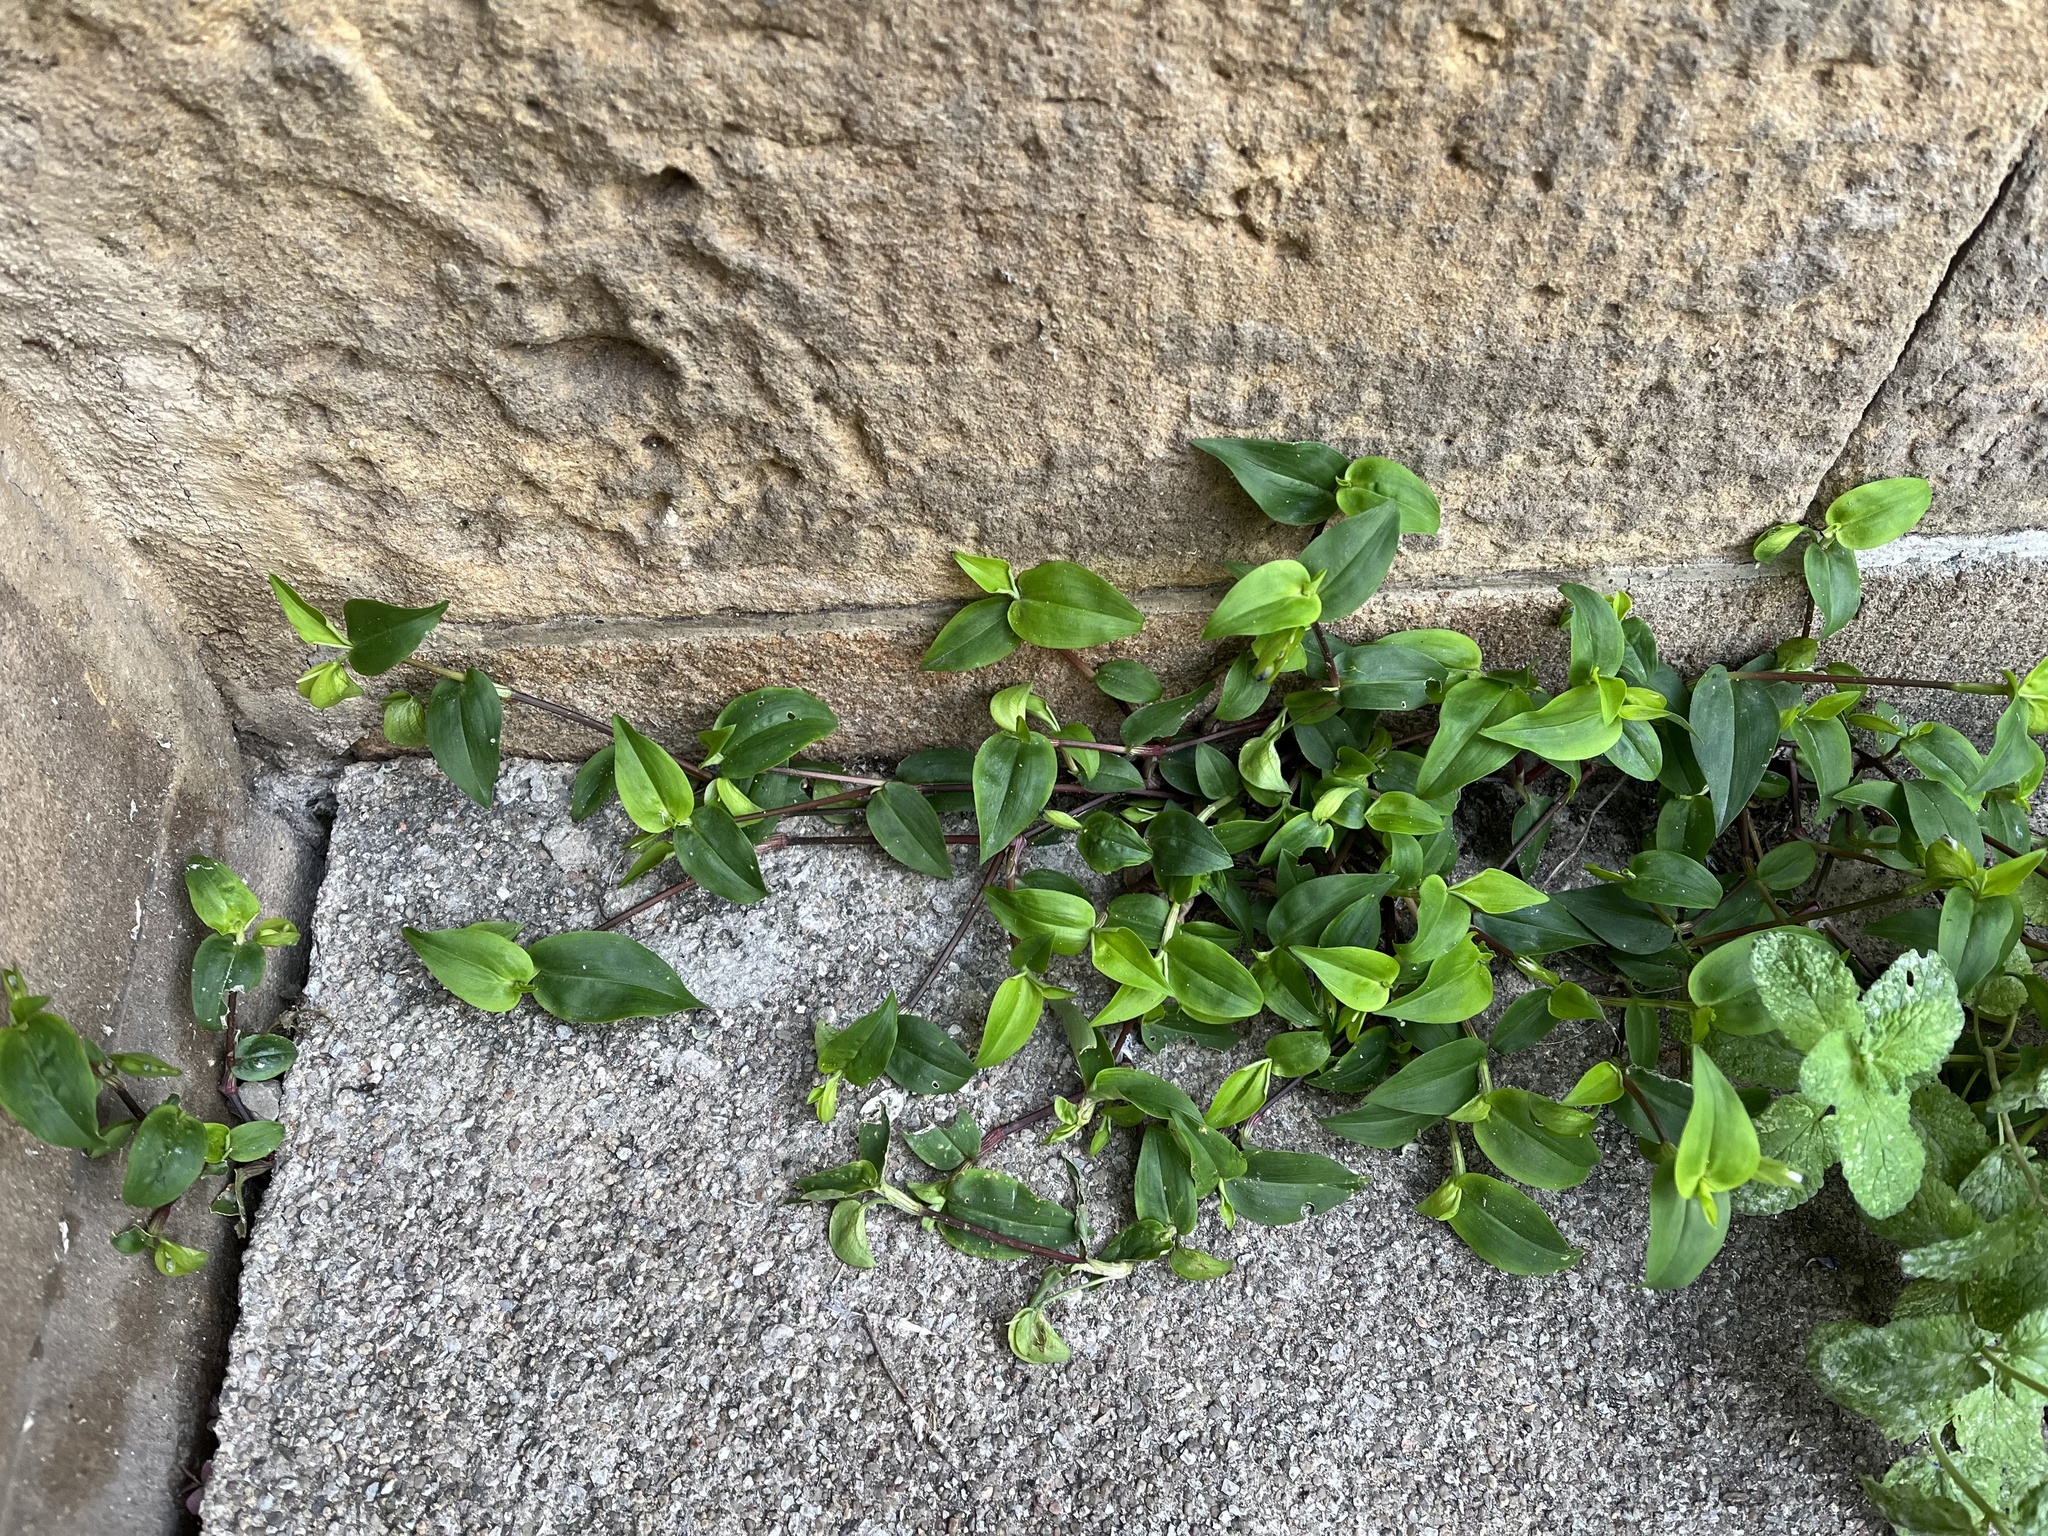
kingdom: Plantae
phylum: Tracheophyta
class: Liliopsida
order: Commelinales
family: Commelinaceae
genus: Commelina
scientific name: Commelina communis
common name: Asiatic dayflower
